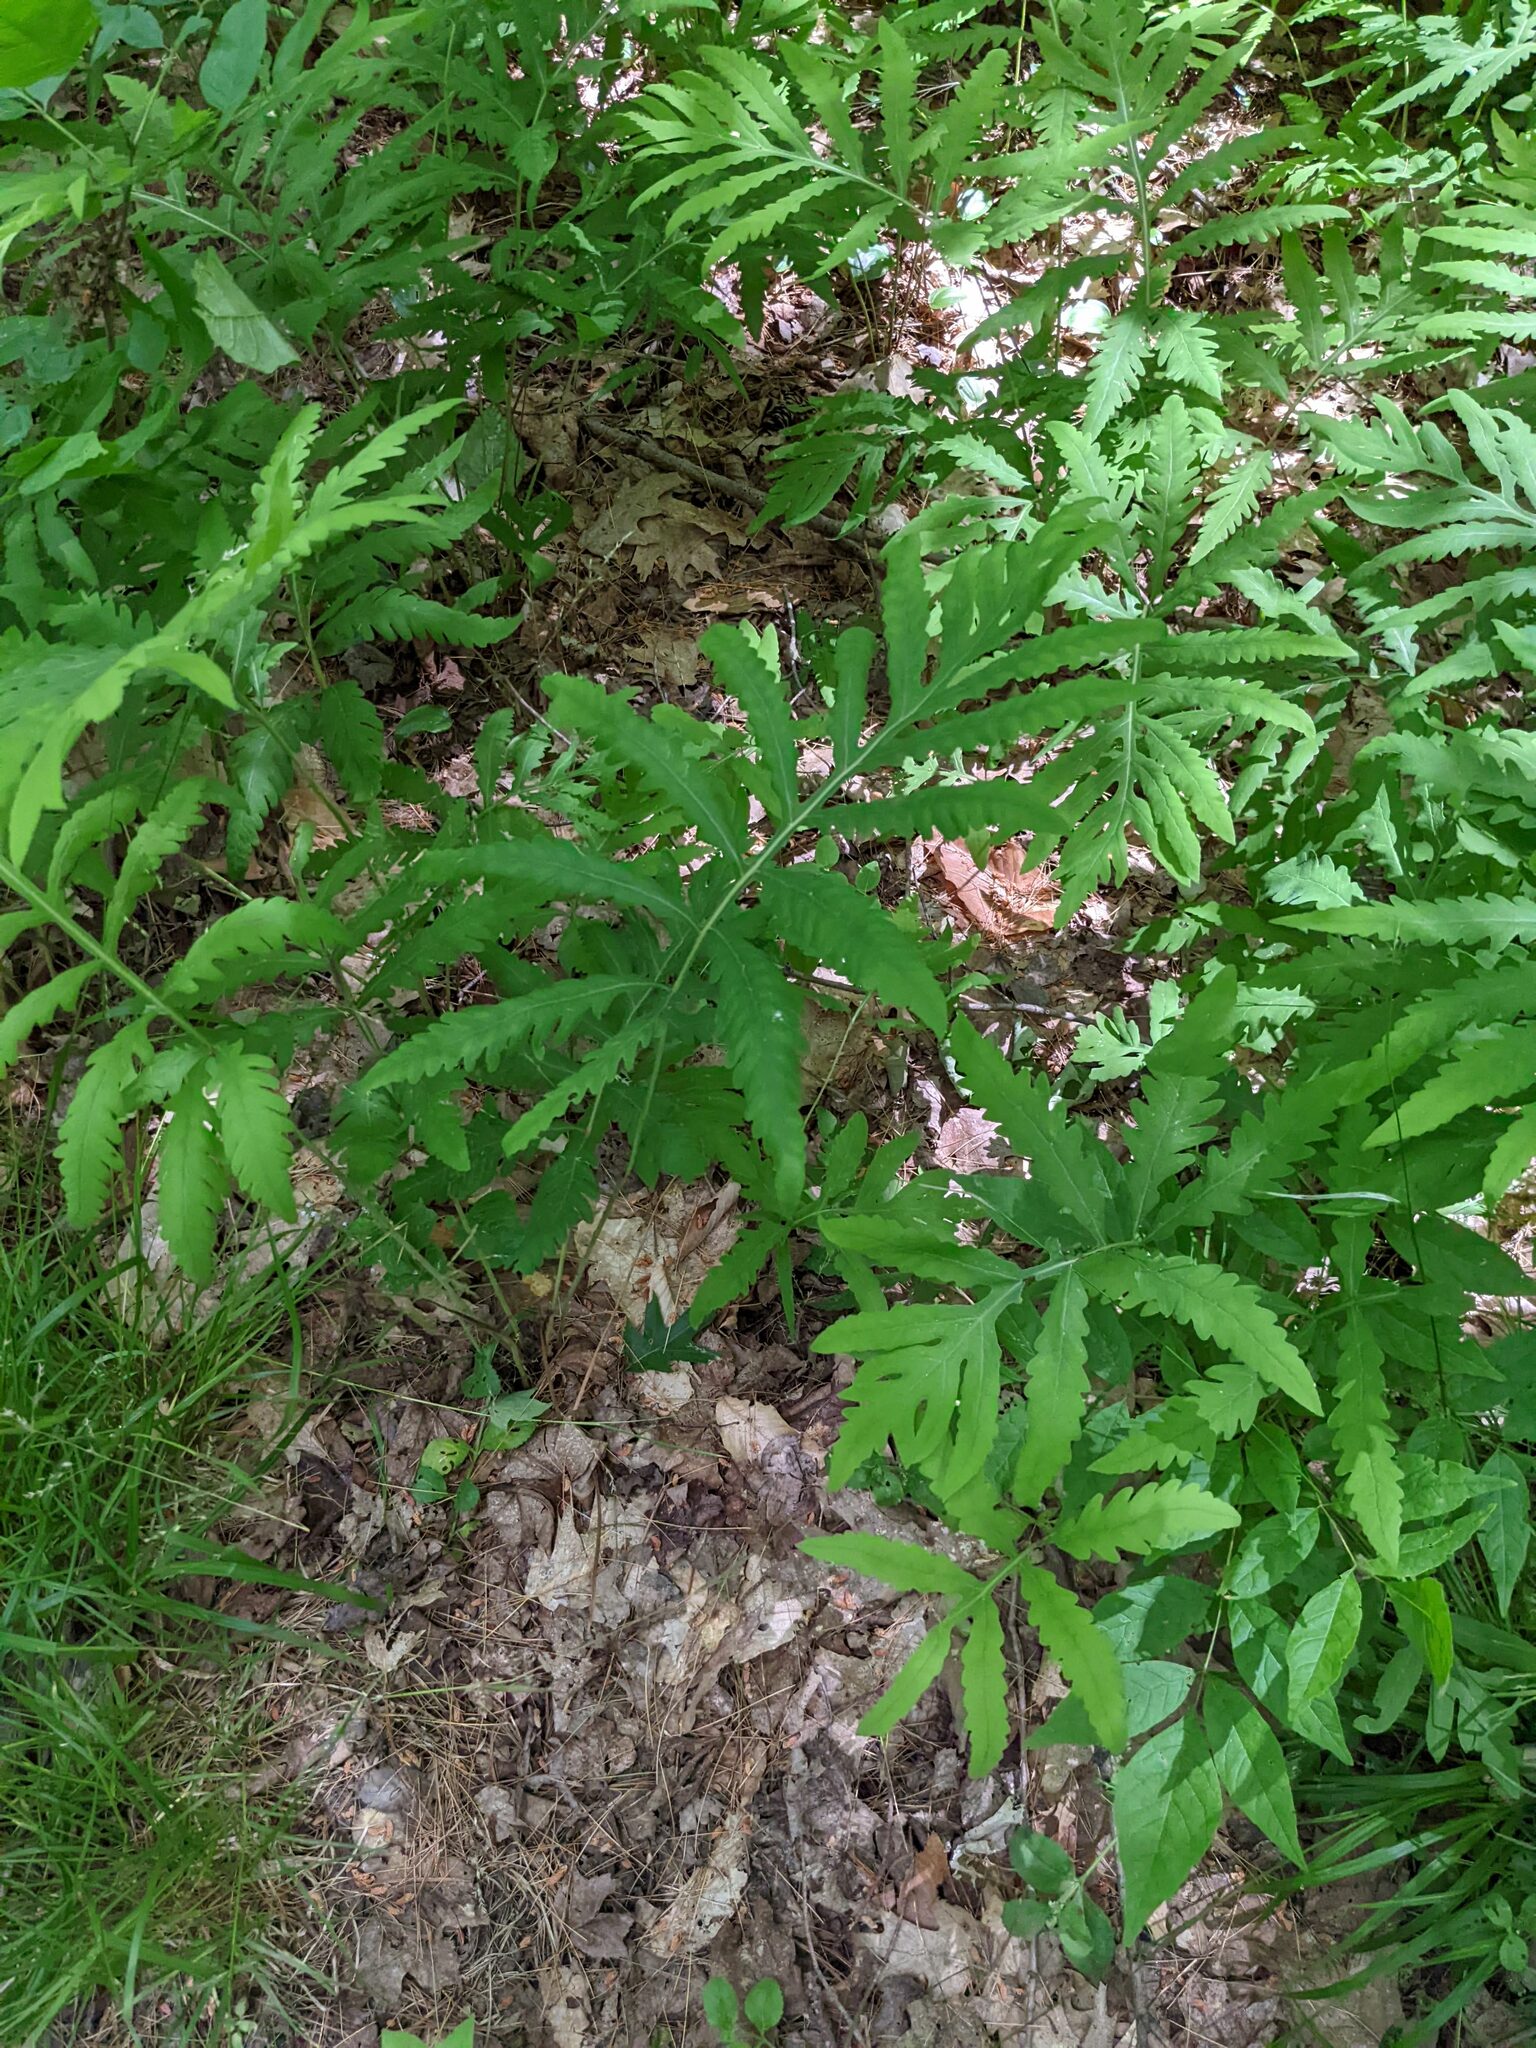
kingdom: Plantae
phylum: Tracheophyta
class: Polypodiopsida
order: Polypodiales
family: Onocleaceae
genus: Onoclea
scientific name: Onoclea sensibilis
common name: Sensitive fern
